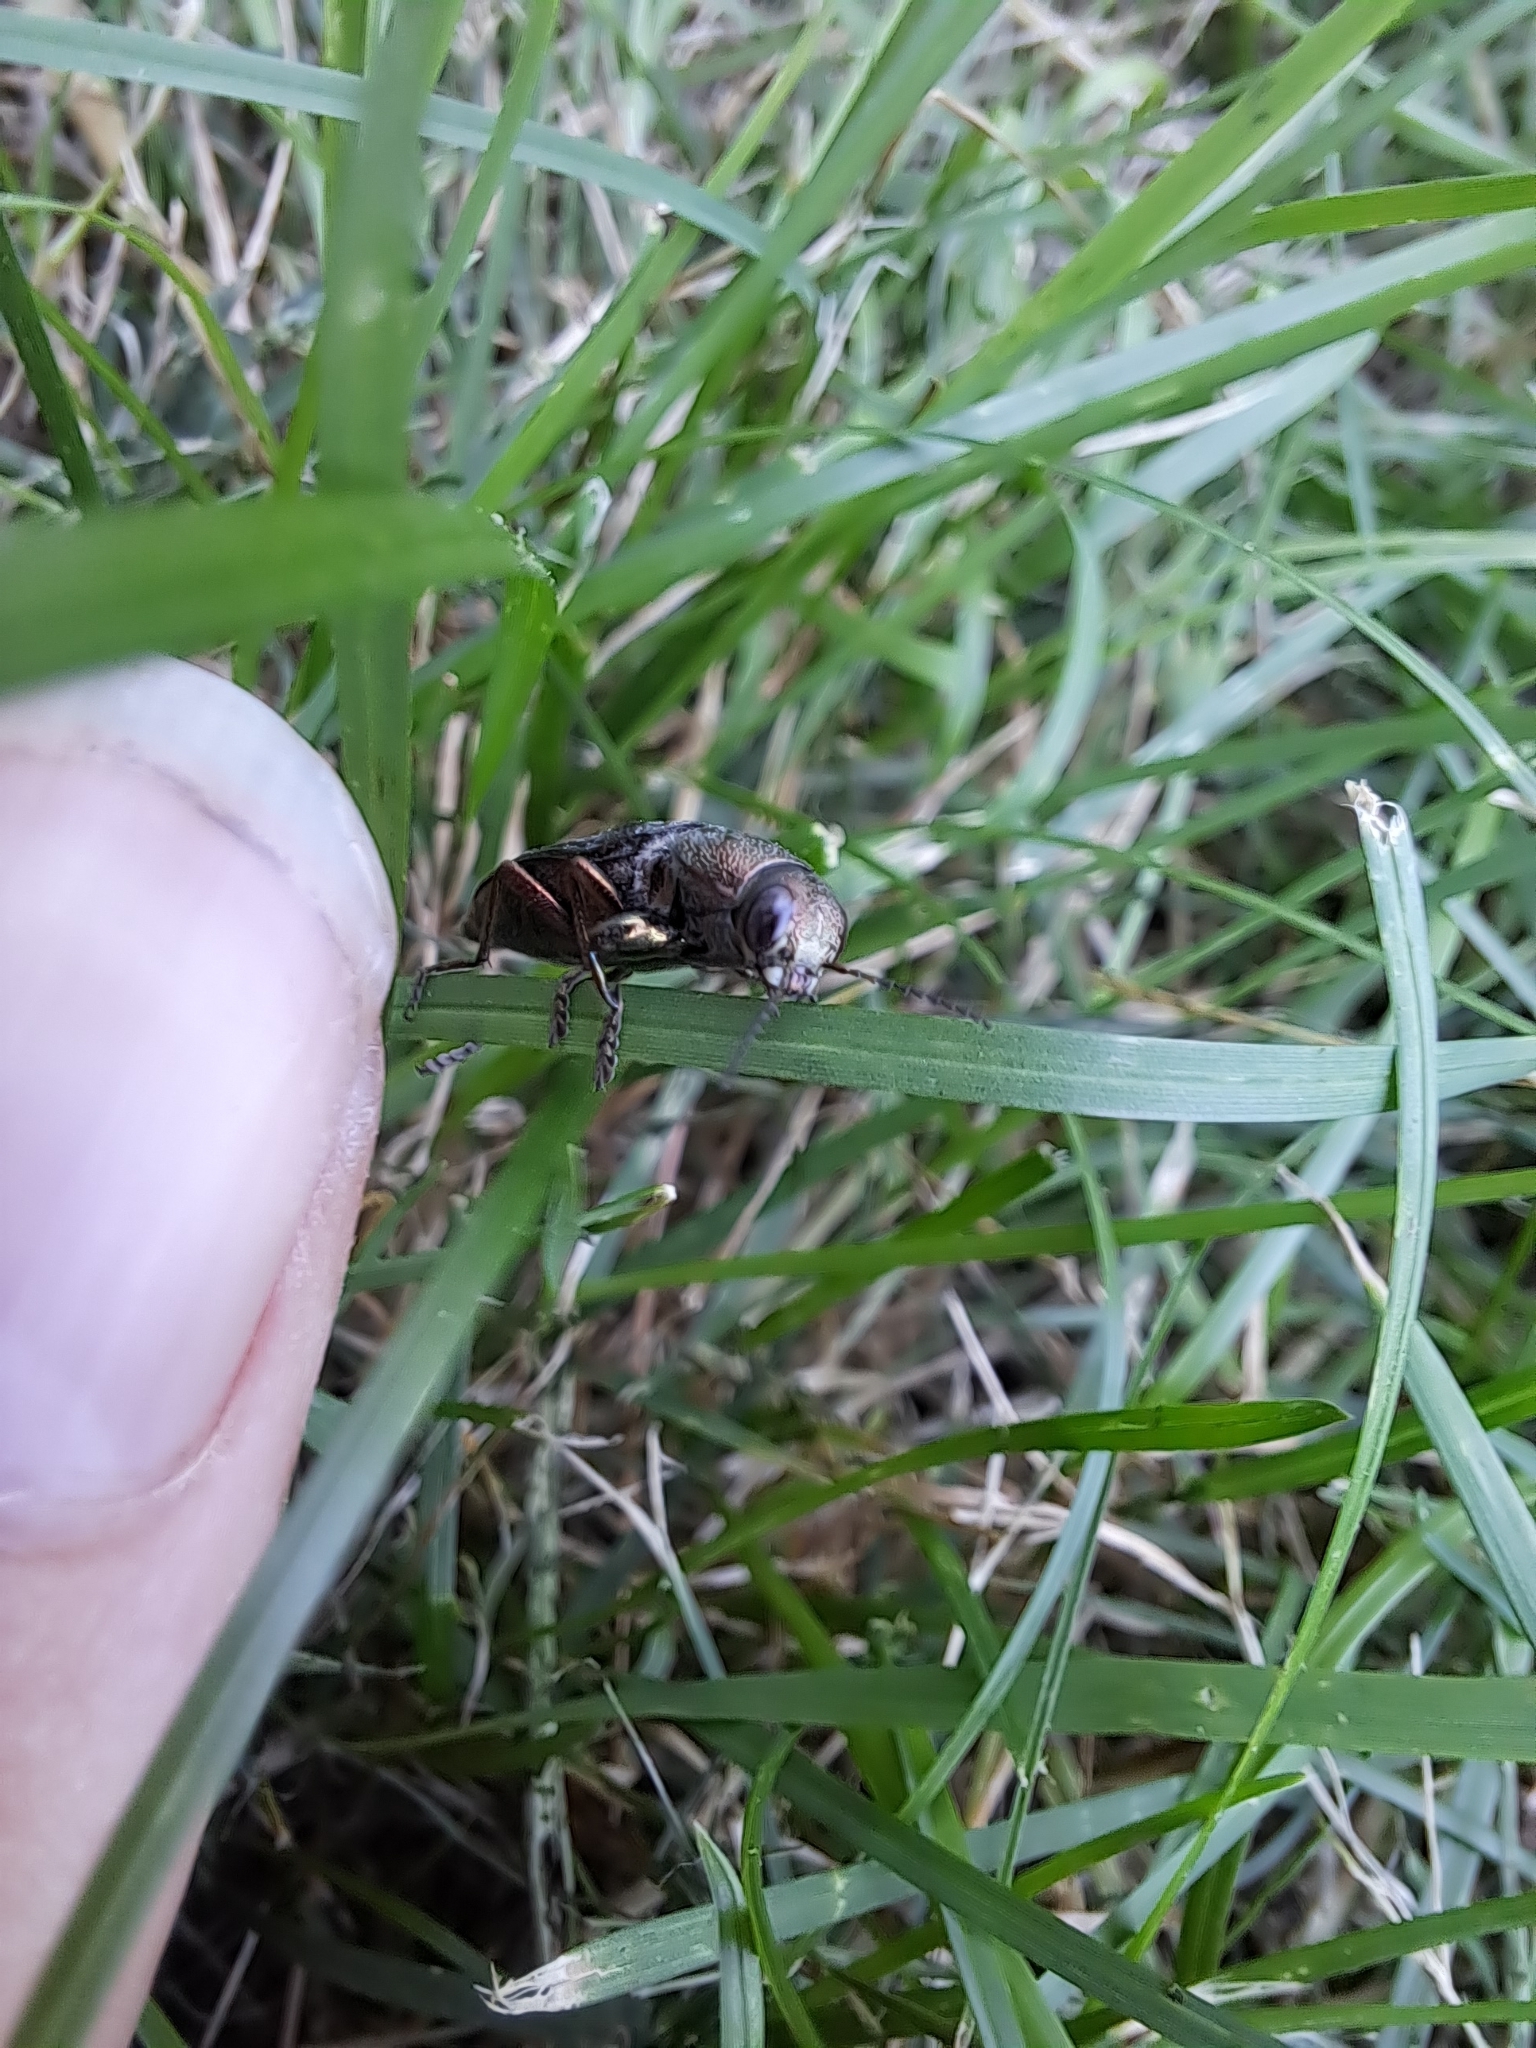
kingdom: Animalia
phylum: Arthropoda
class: Insecta
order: Coleoptera
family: Buprestidae
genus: Buprestis
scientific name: Buprestis maculativentris
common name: Spotted-belly buprestid beetle
